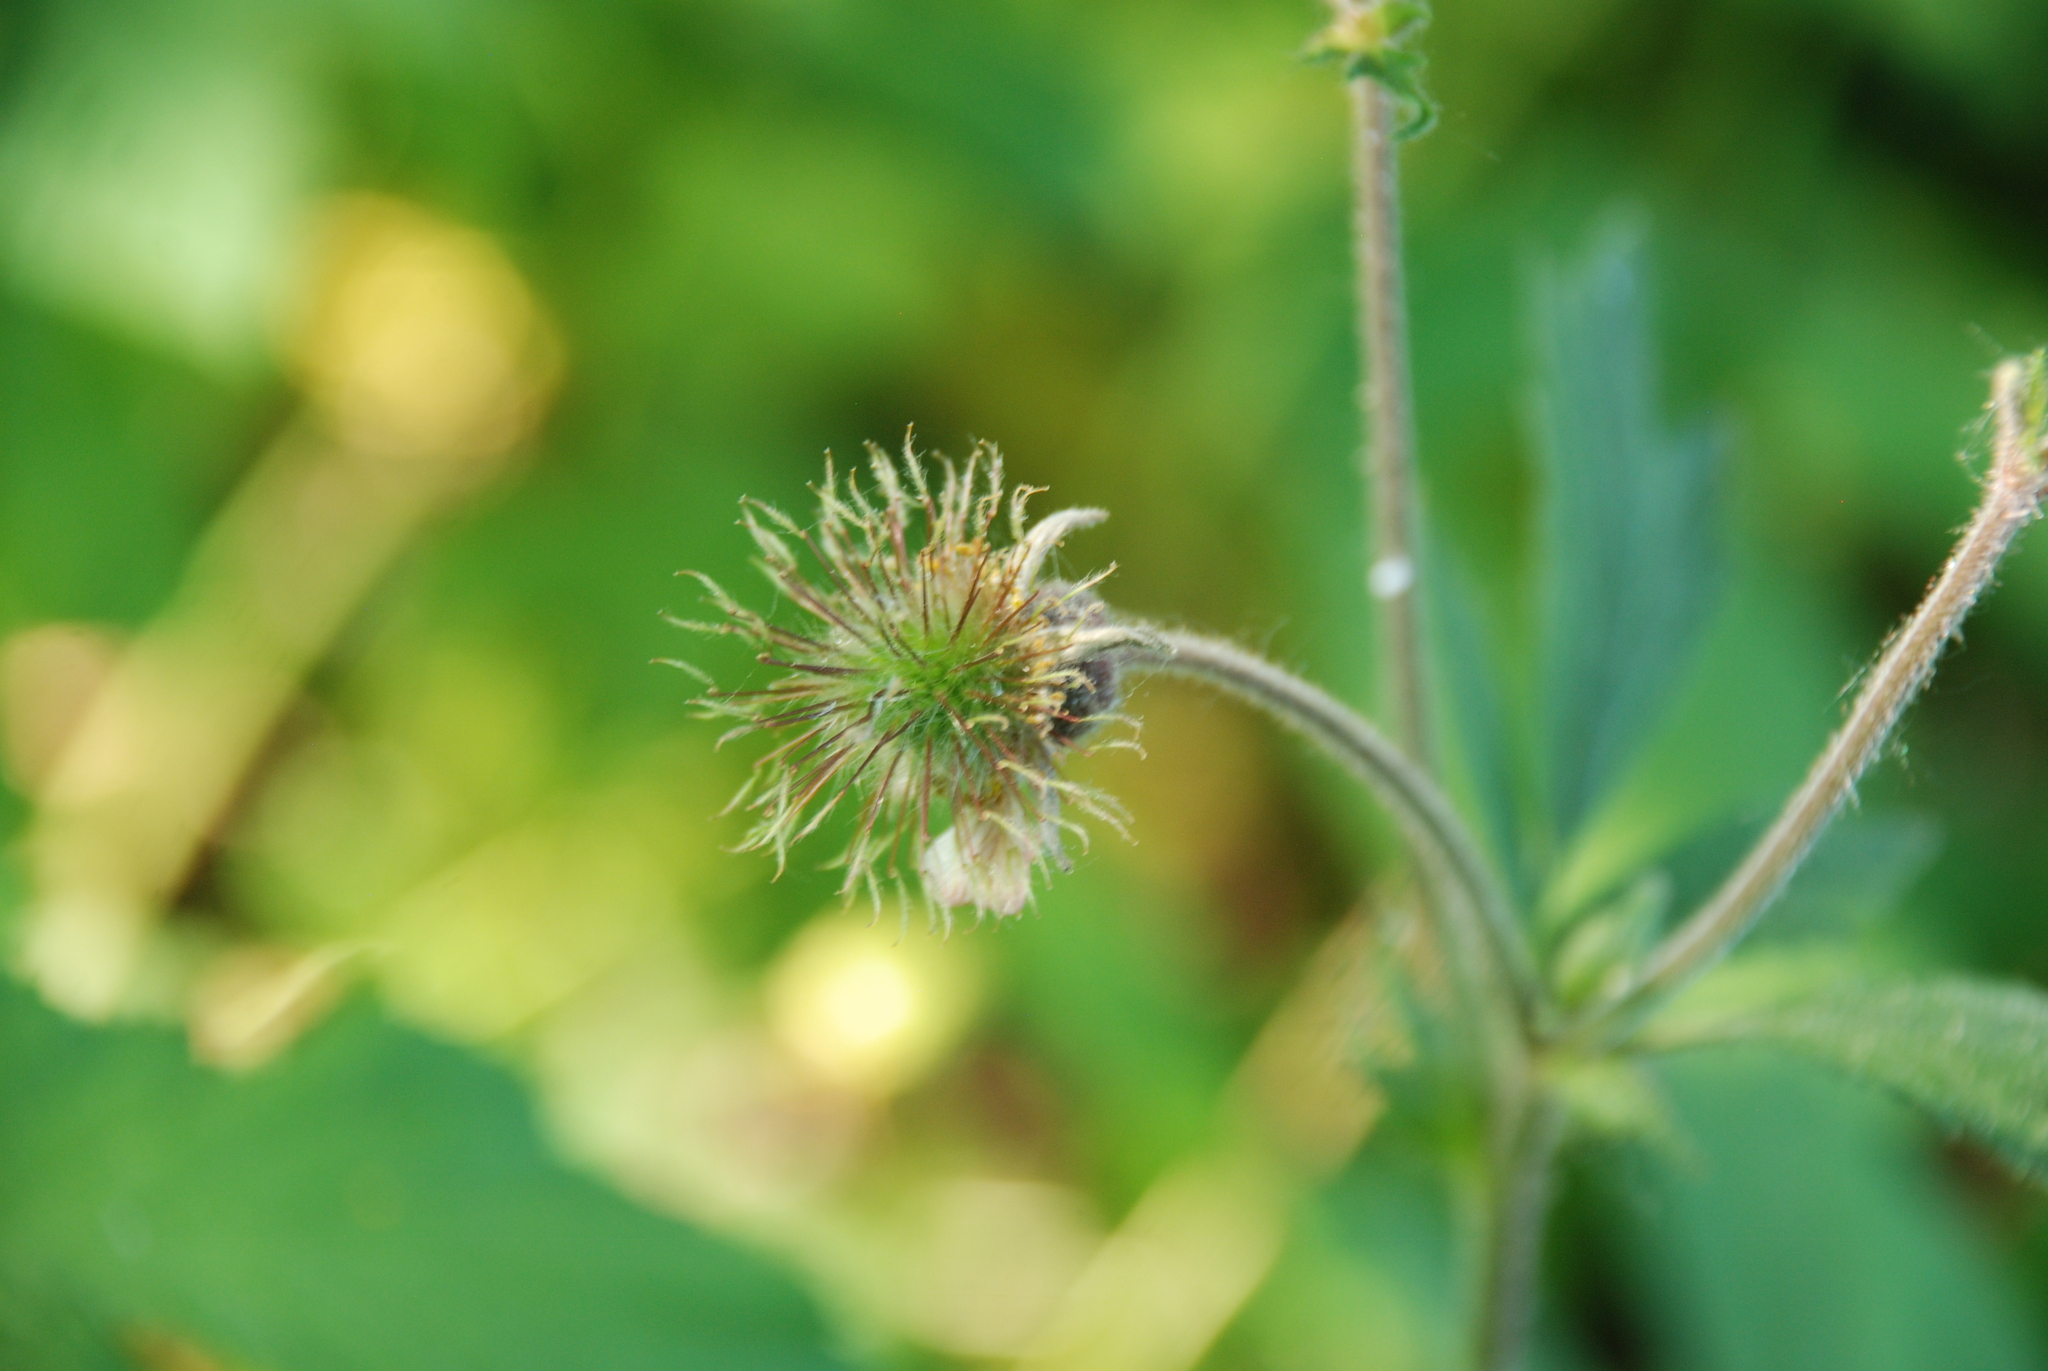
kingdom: Plantae
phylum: Tracheophyta
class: Magnoliopsida
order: Rosales
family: Rosaceae
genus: Geum
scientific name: Geum rivale
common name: Water avens
